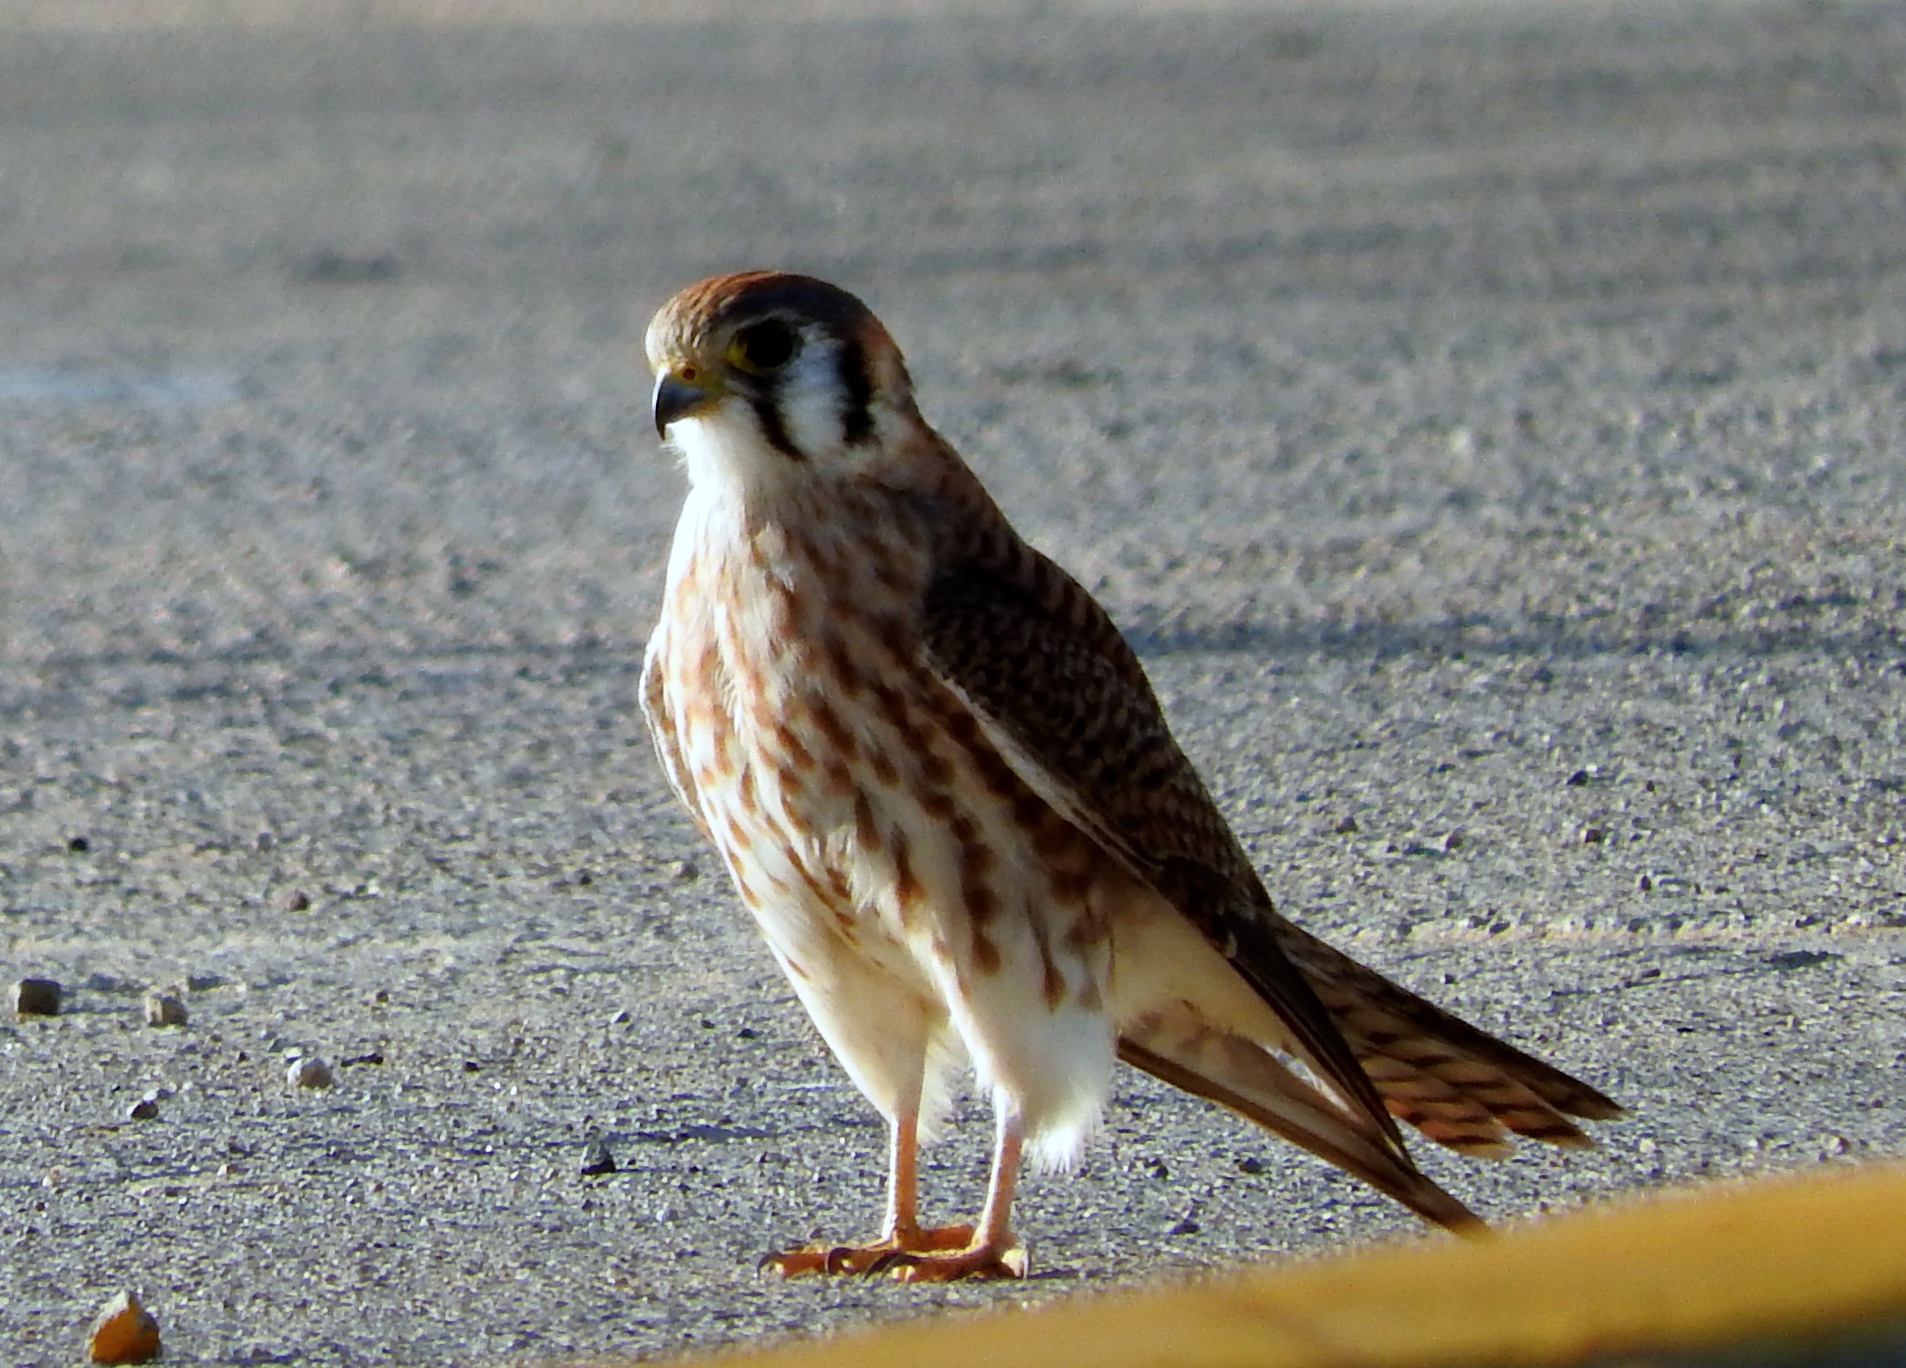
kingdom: Animalia
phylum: Chordata
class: Aves
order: Falconiformes
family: Falconidae
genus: Falco
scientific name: Falco sparverius
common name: American kestrel
